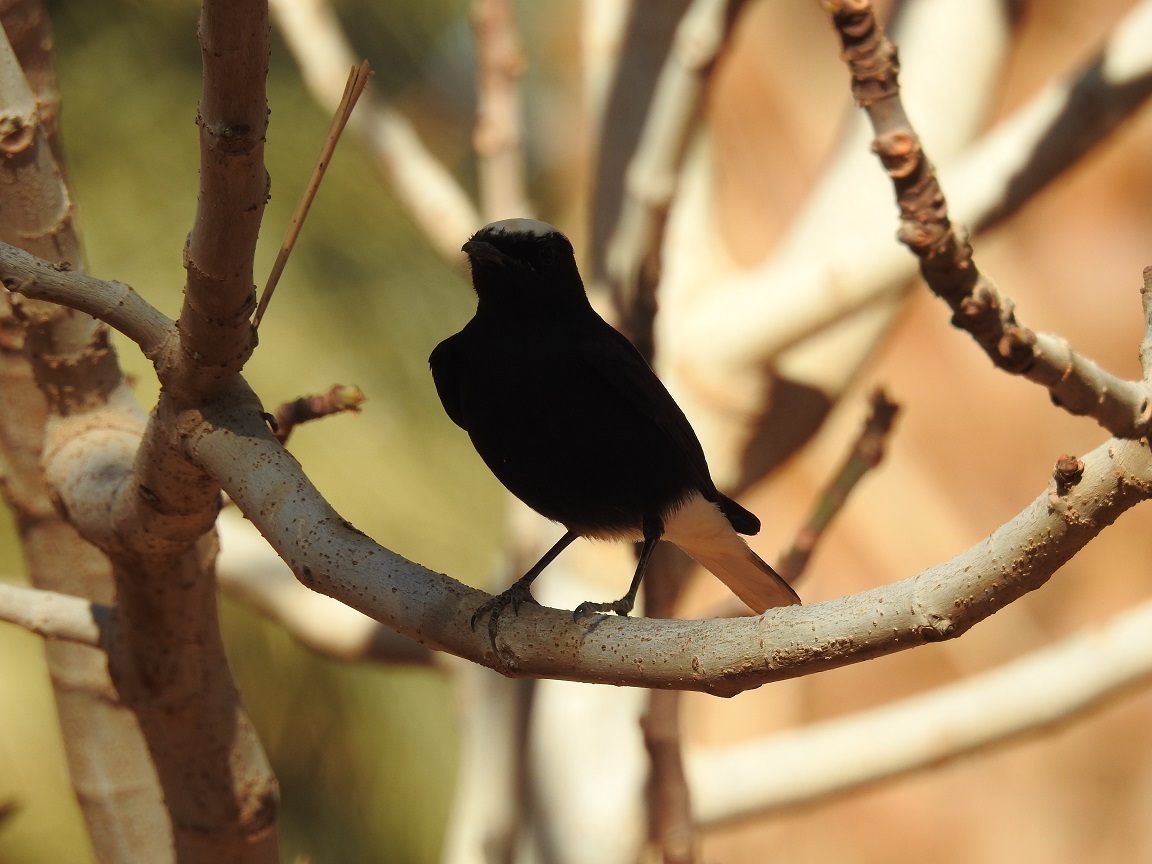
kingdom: Animalia
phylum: Chordata
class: Aves
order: Passeriformes
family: Muscicapidae
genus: Oenanthe
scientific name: Oenanthe leucopyga
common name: White-crowned wheatear
